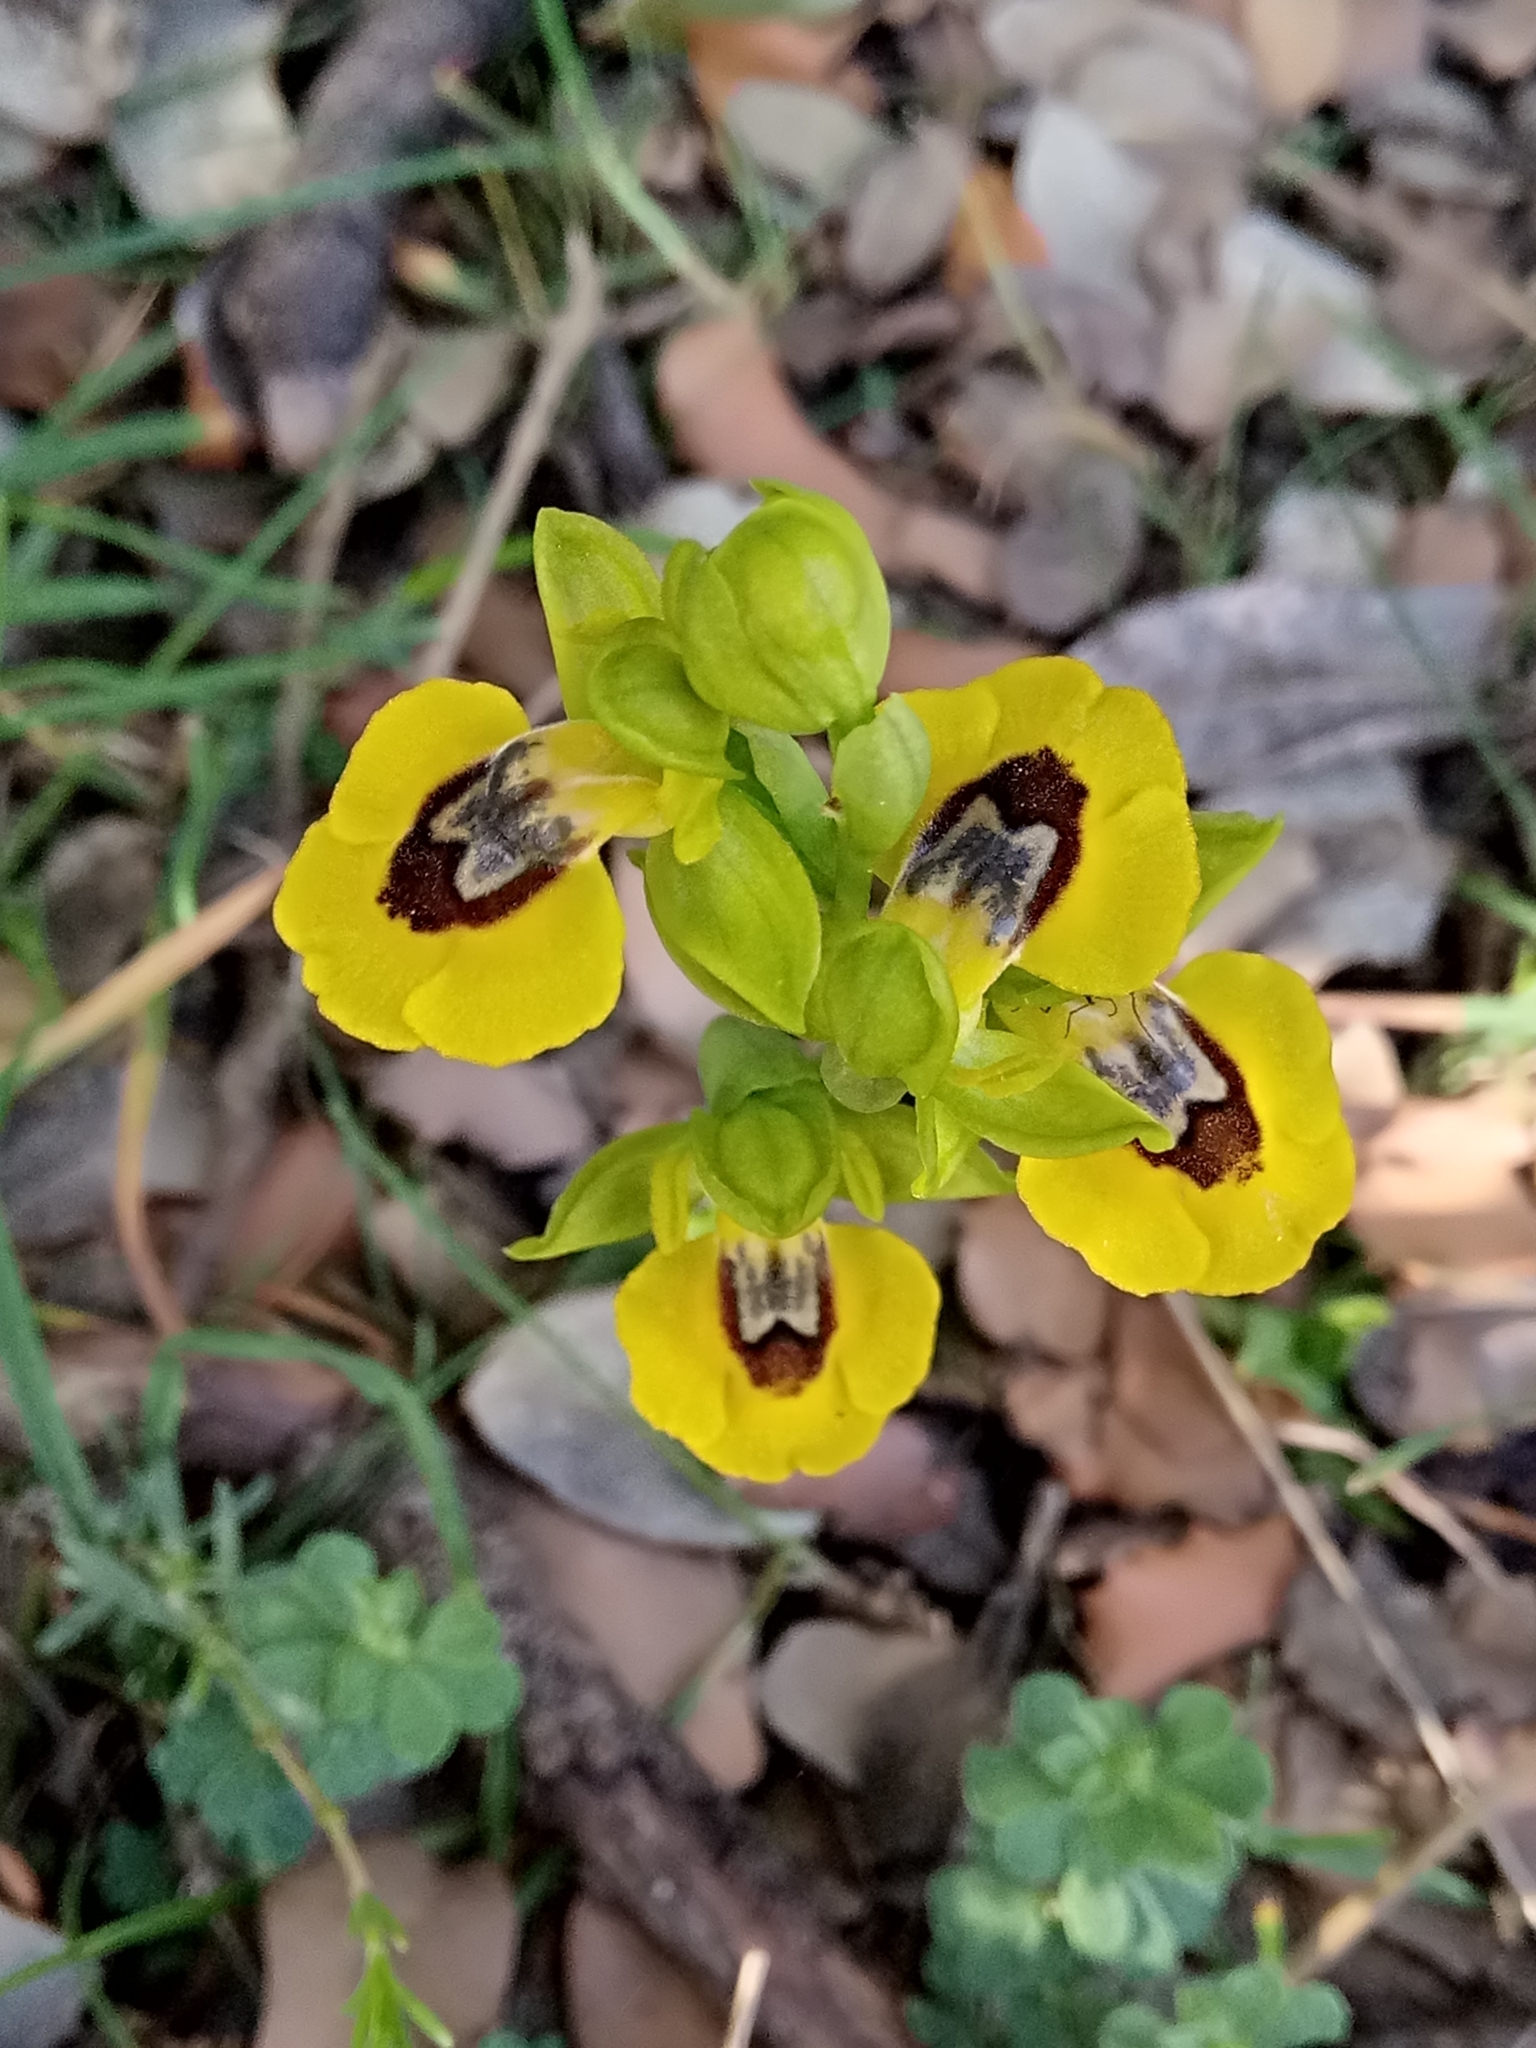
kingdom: Plantae
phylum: Tracheophyta
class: Liliopsida
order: Asparagales
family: Orchidaceae
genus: Ophrys
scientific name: Ophrys lutea
